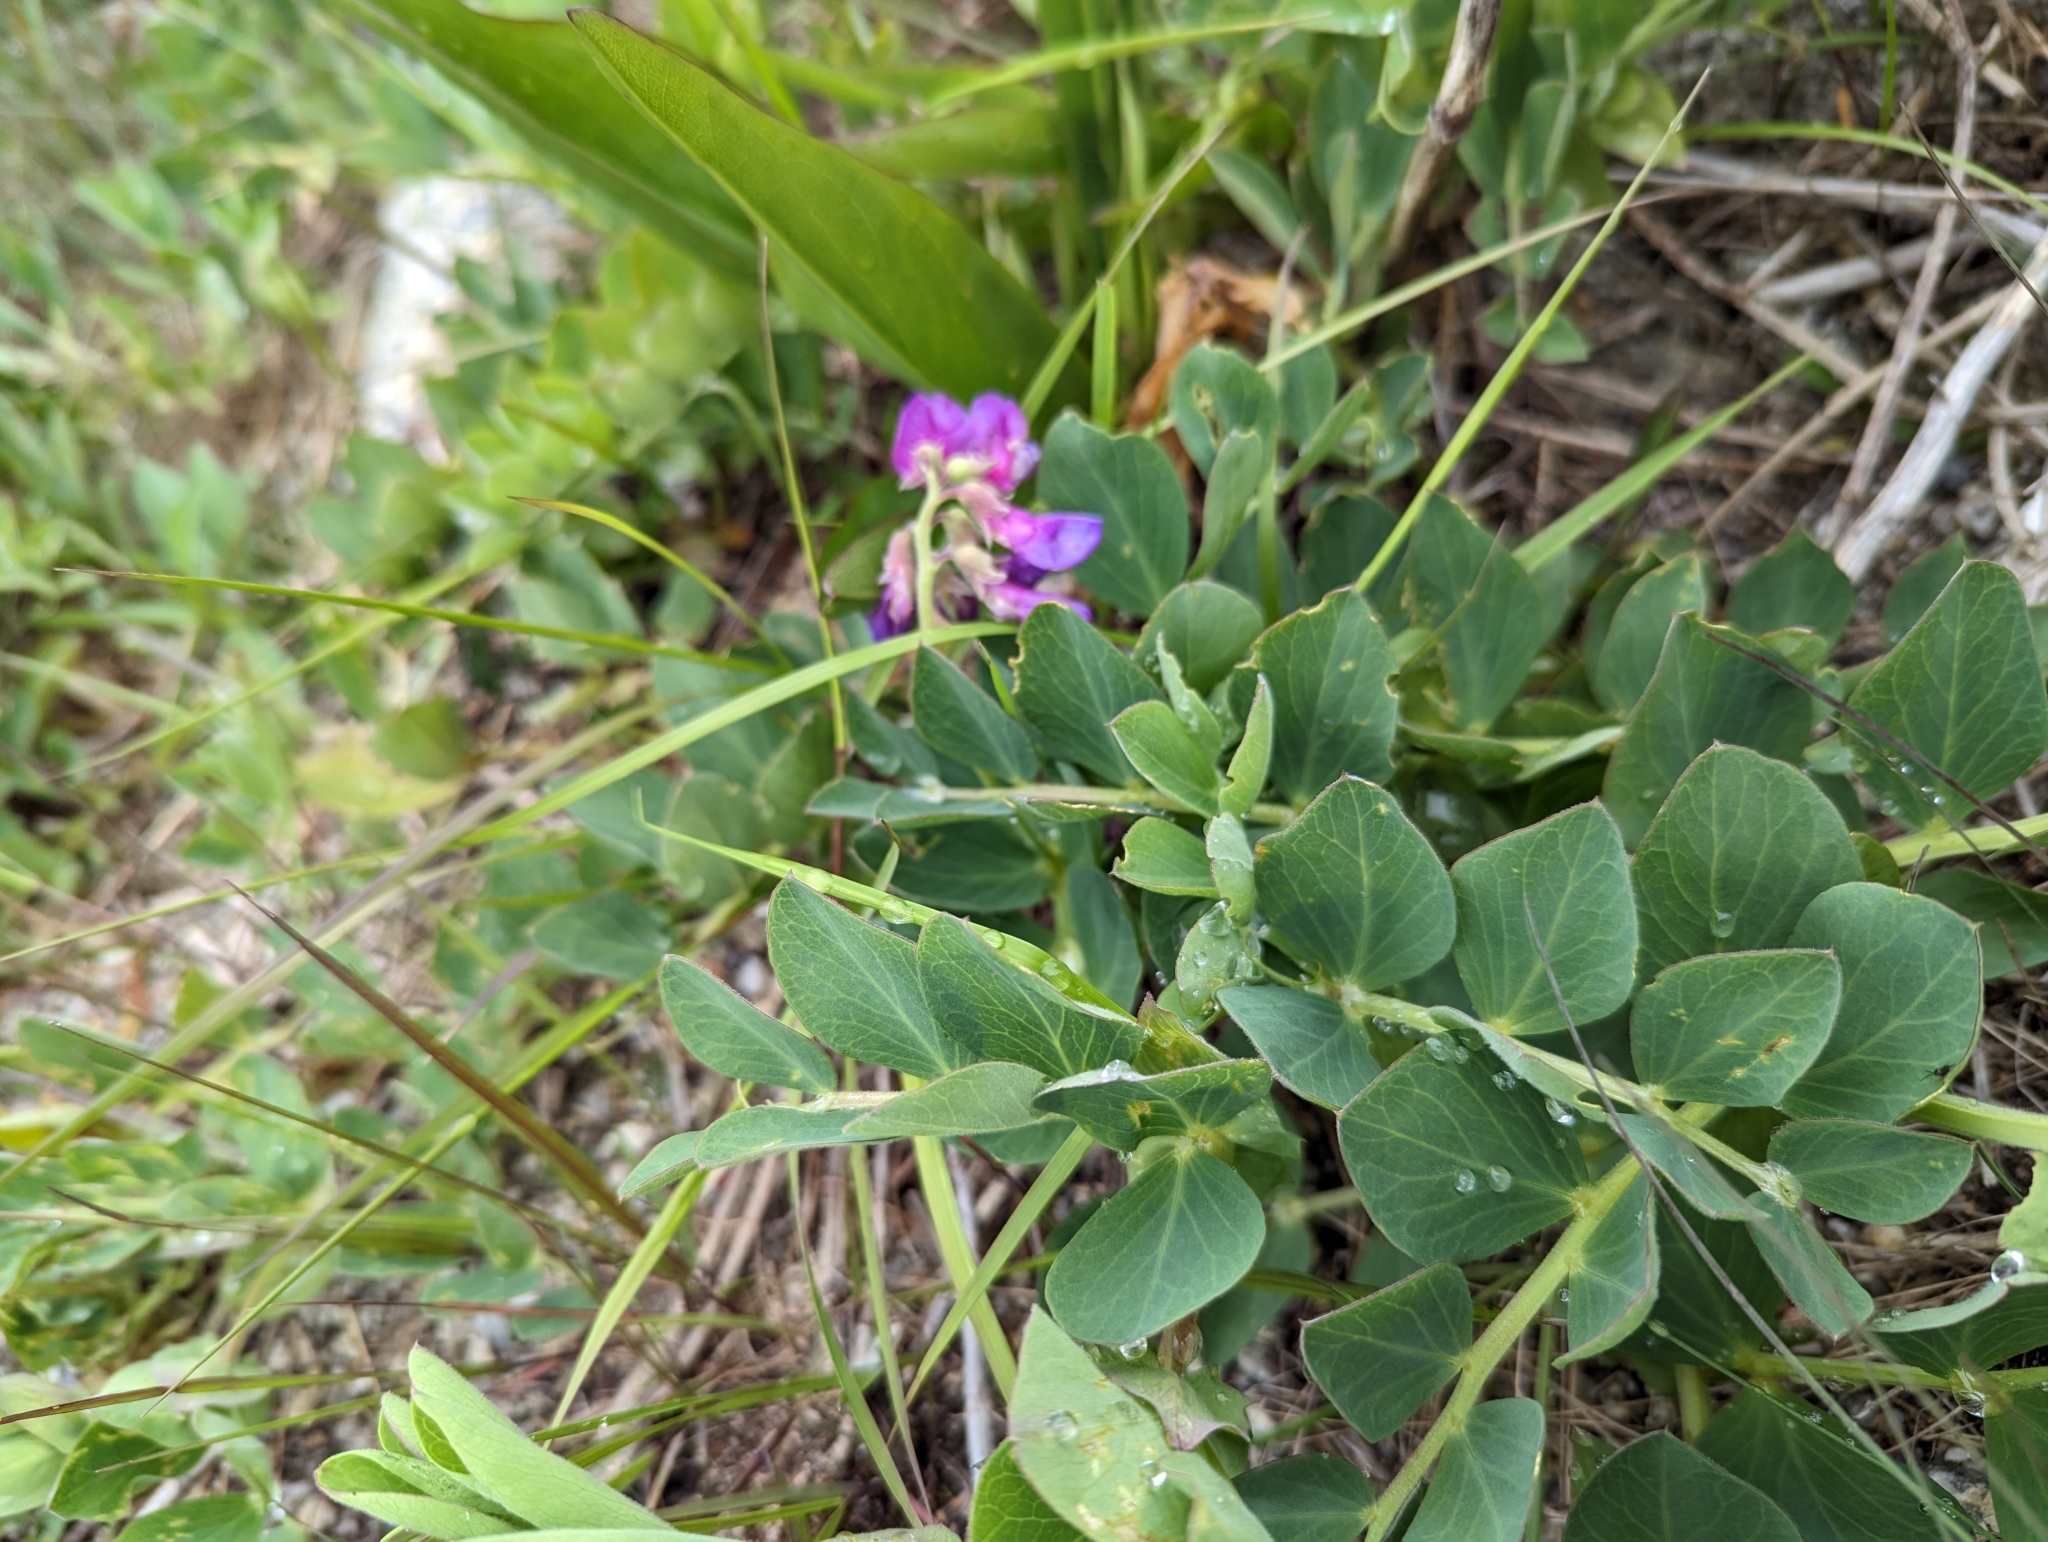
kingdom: Plantae
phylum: Tracheophyta
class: Magnoliopsida
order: Fabales
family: Fabaceae
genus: Lathyrus
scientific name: Lathyrus japonicus
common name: Sea pea
